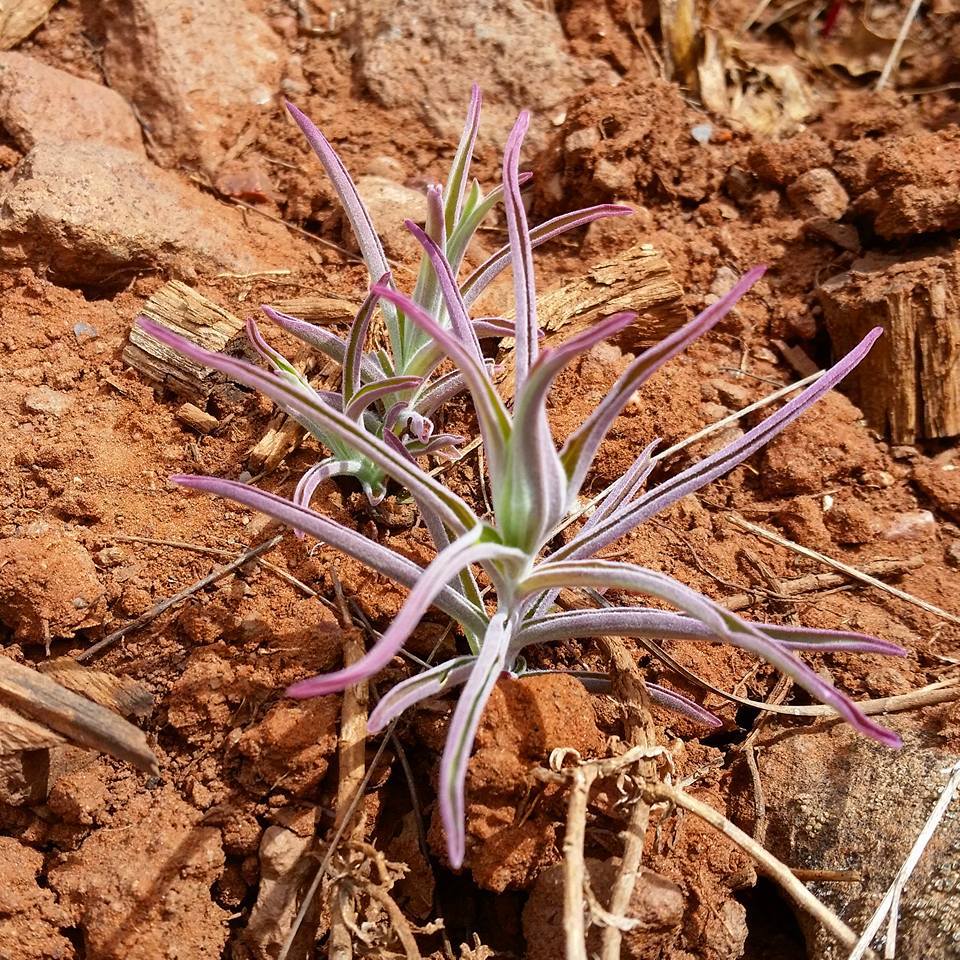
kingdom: Plantae
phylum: Tracheophyta
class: Magnoliopsida
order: Lamiales
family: Orobanchaceae
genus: Castilleja
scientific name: Castilleja integra
